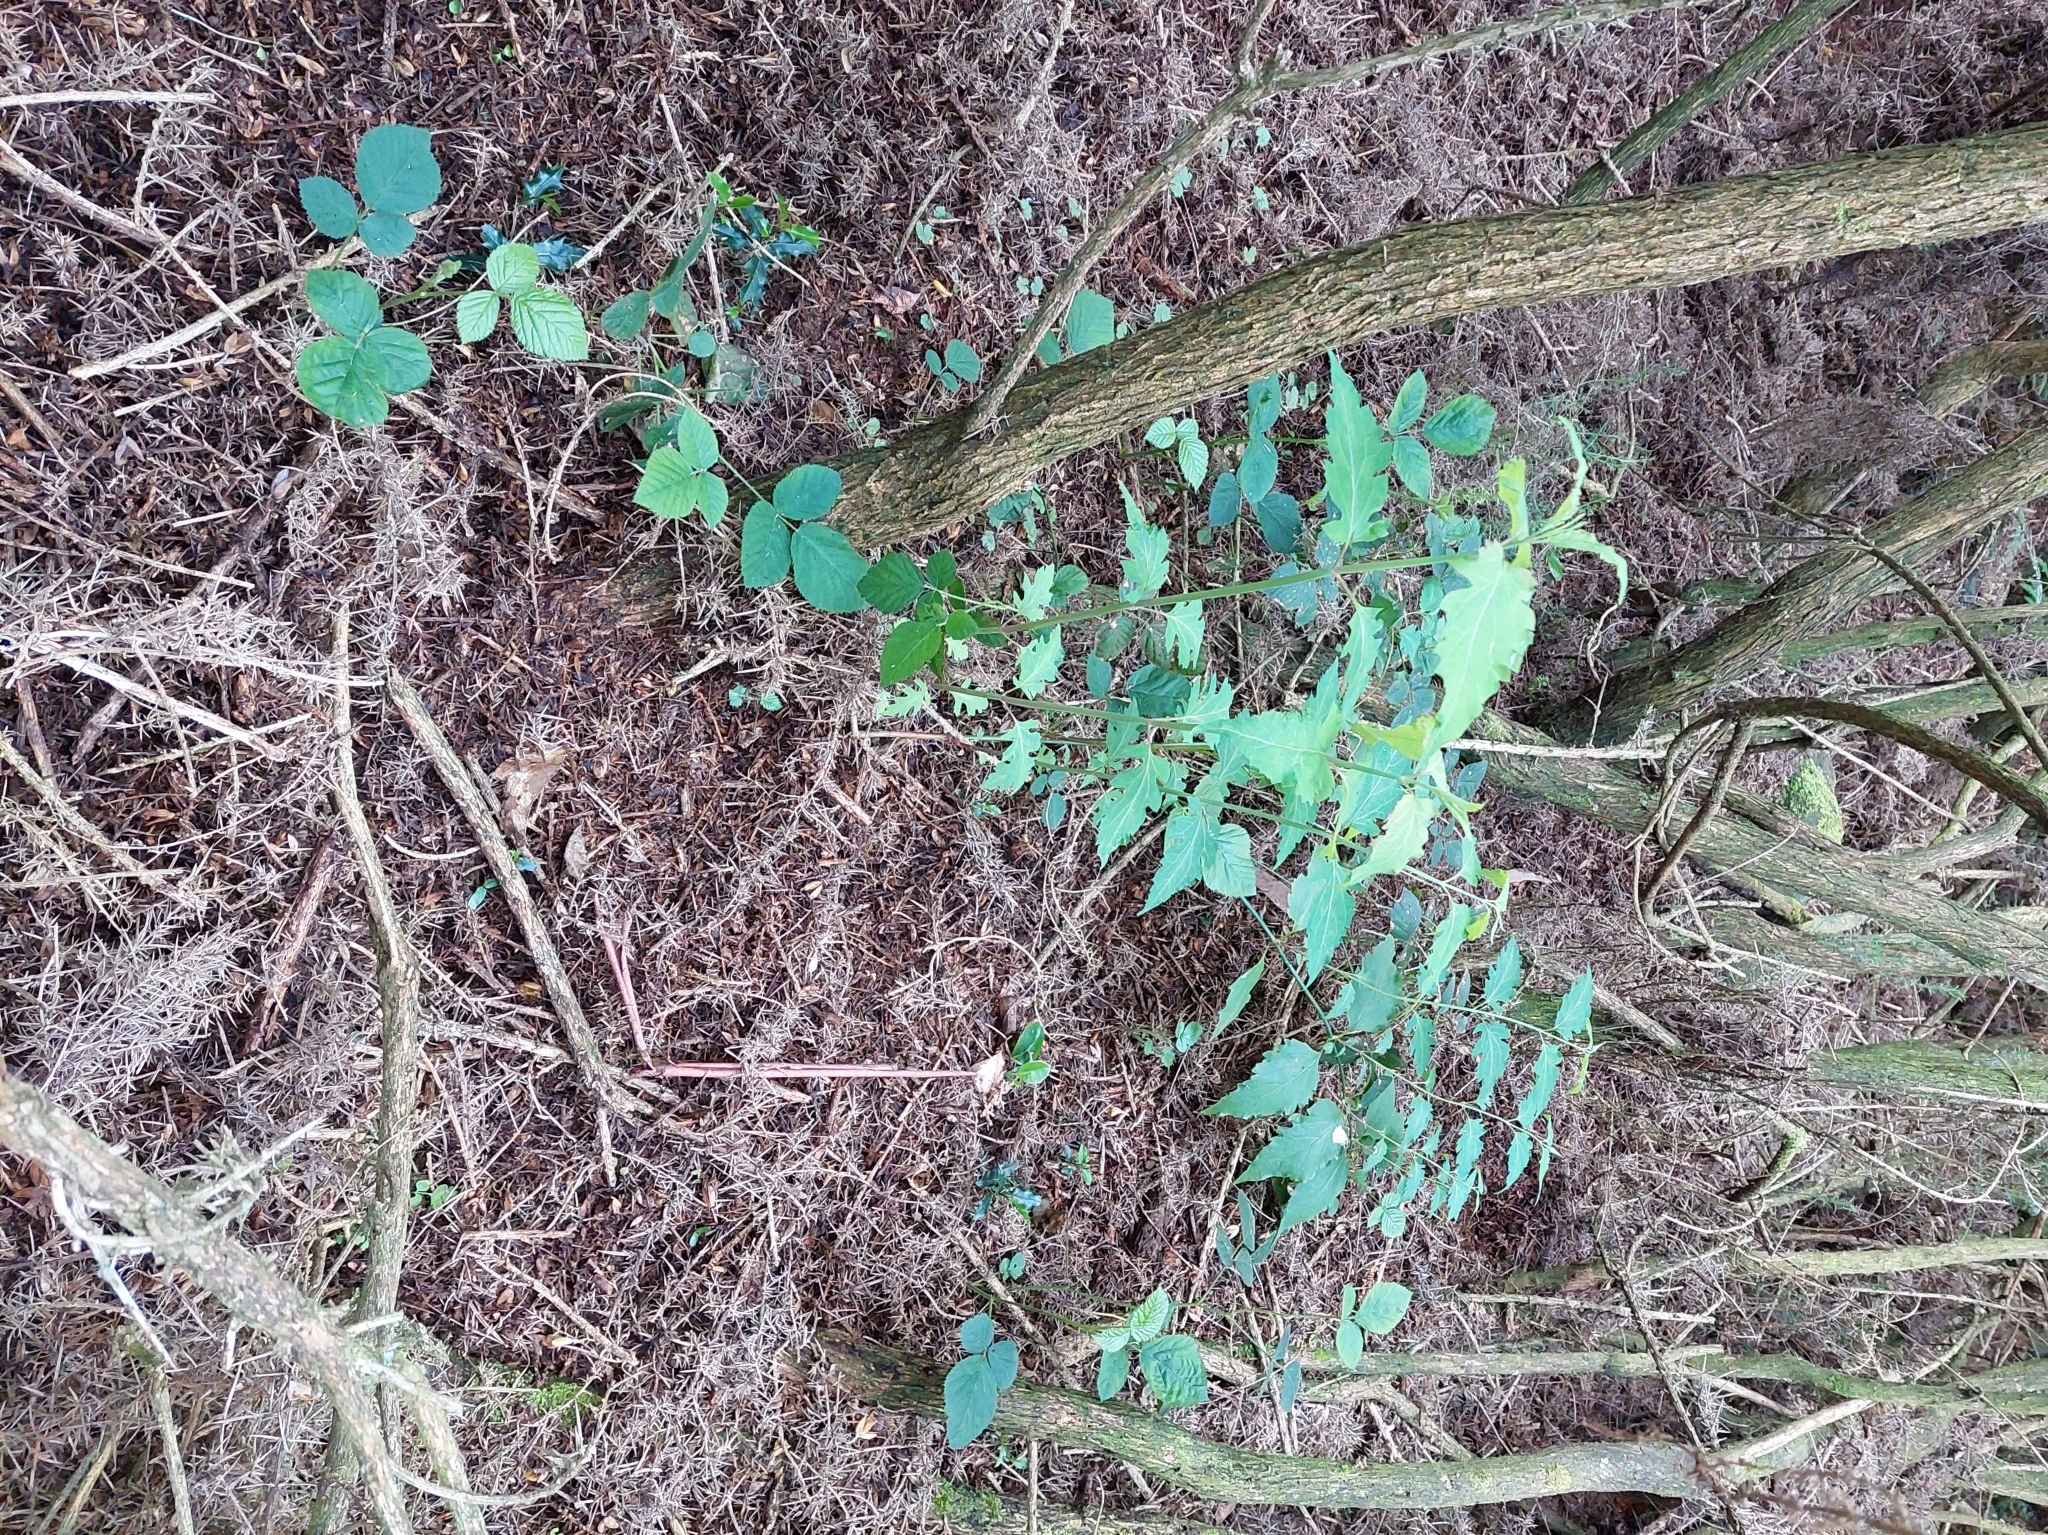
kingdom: Plantae
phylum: Tracheophyta
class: Magnoliopsida
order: Dipsacales
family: Caprifoliaceae
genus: Leycesteria
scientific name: Leycesteria formosa
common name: Himalayan honeysuckle
